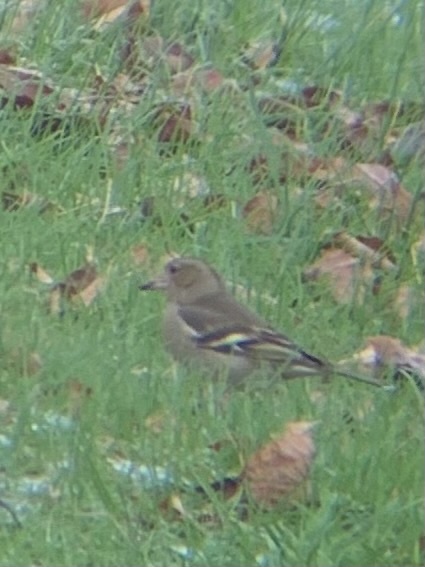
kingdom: Animalia
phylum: Chordata
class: Aves
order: Passeriformes
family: Fringillidae
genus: Fringilla
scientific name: Fringilla coelebs
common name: Common chaffinch
